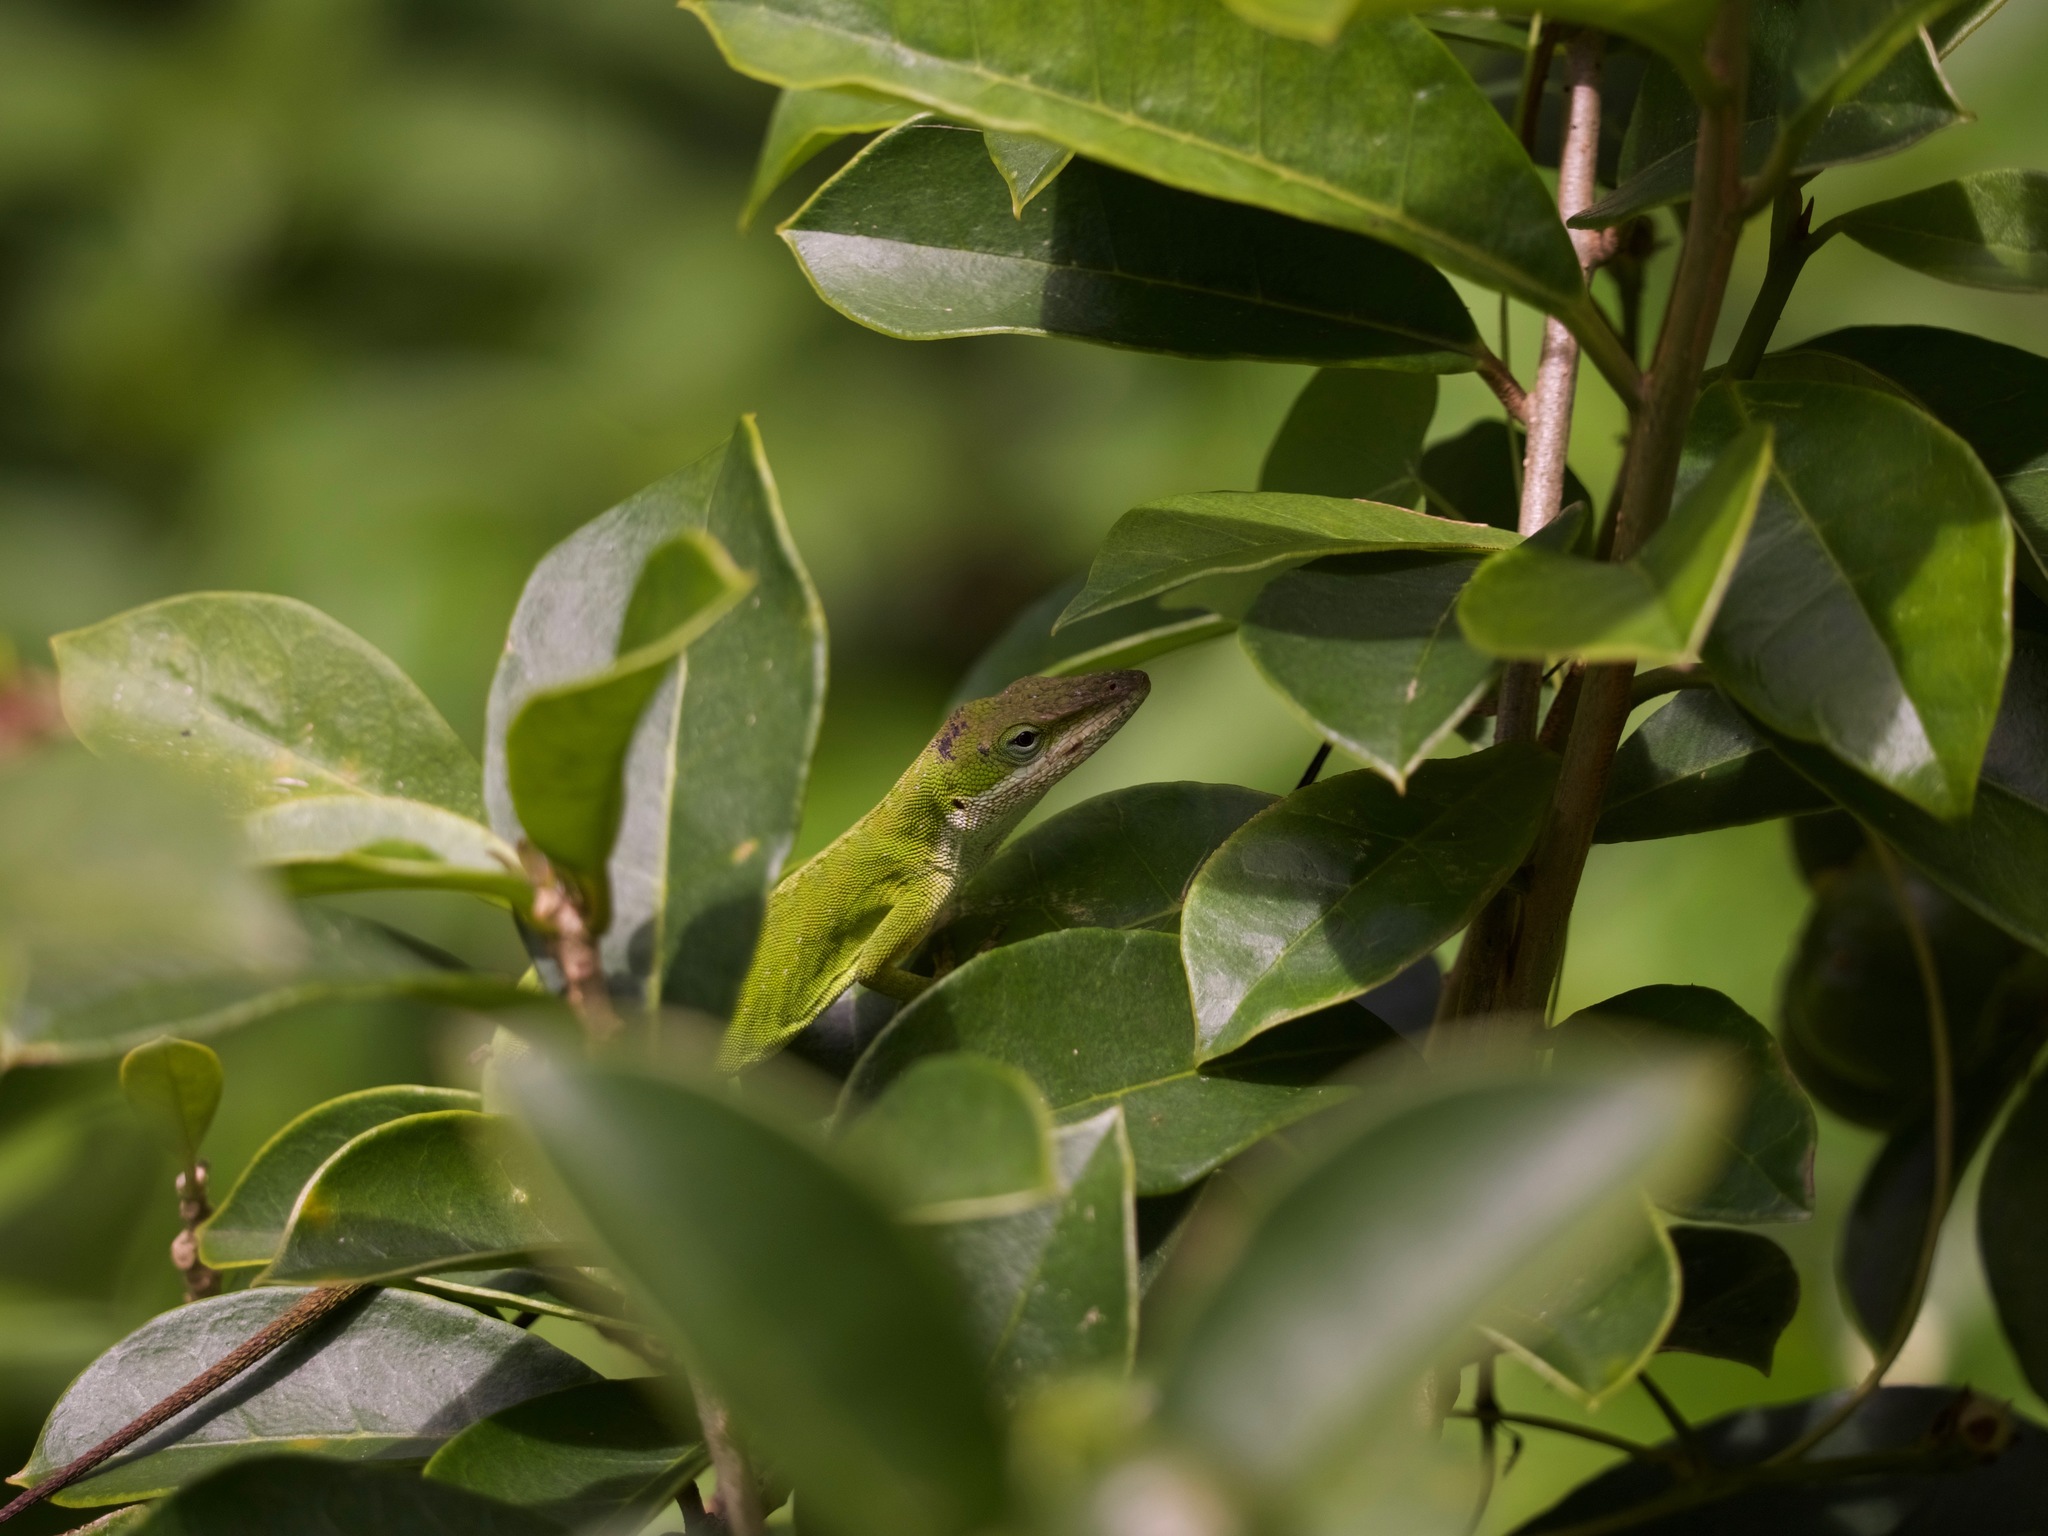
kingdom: Animalia
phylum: Chordata
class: Squamata
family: Dactyloidae
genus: Anolis
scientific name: Anolis carolinensis
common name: Green anole
